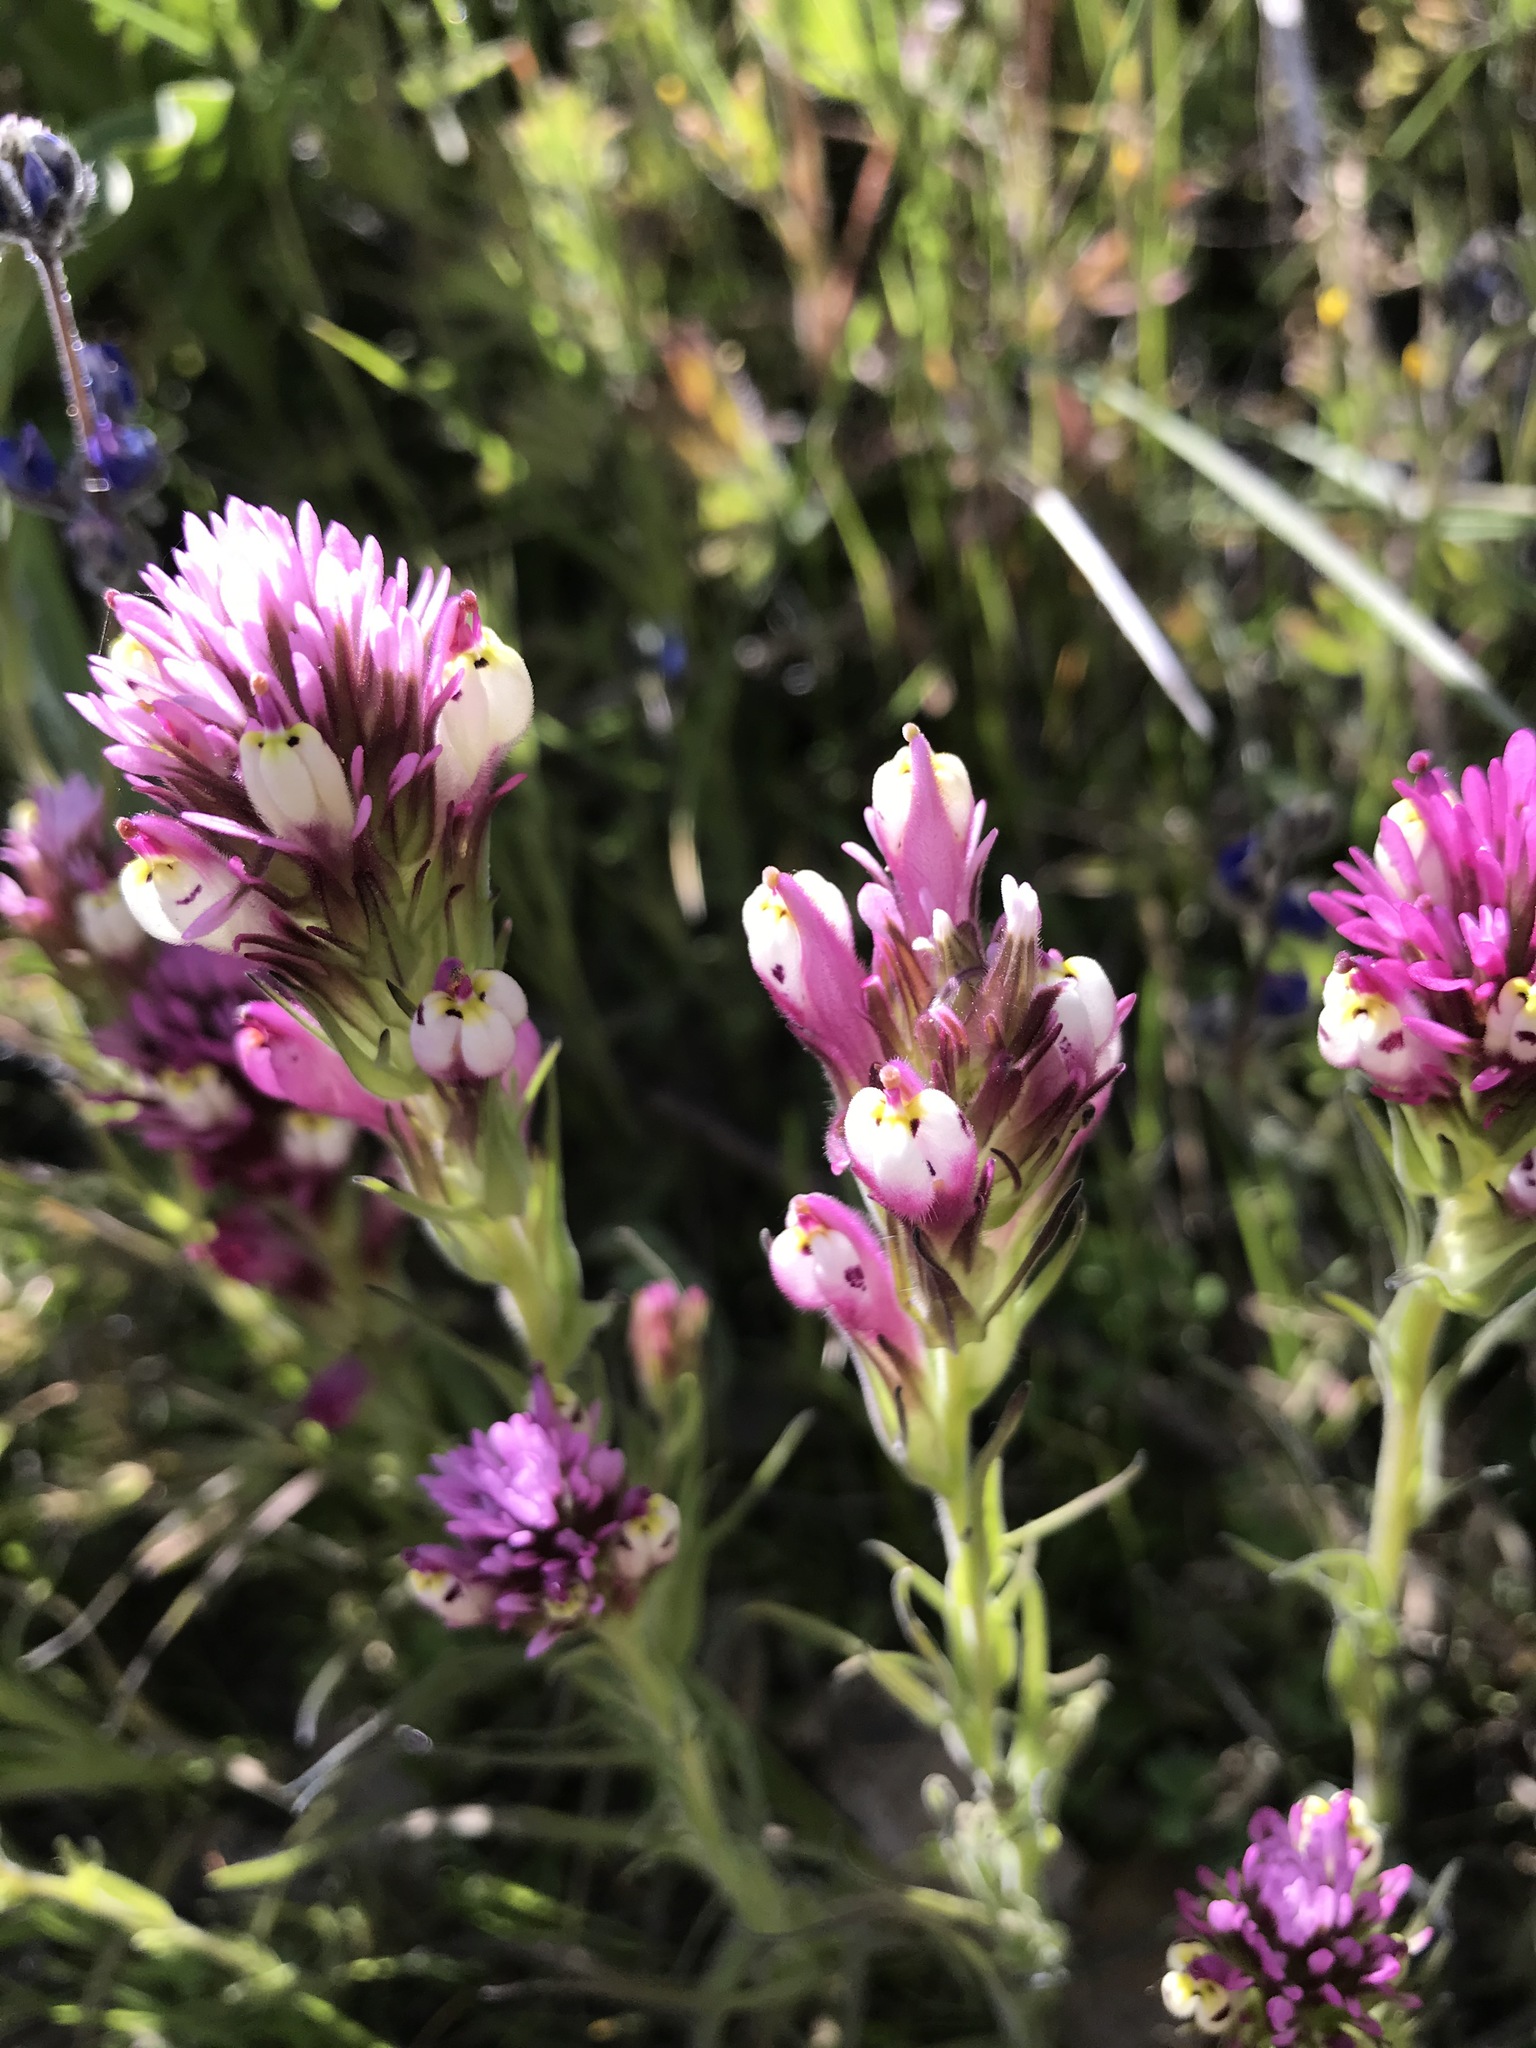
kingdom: Plantae
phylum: Tracheophyta
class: Magnoliopsida
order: Lamiales
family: Orobanchaceae
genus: Castilleja
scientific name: Castilleja exserta
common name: Purple owl-clover
